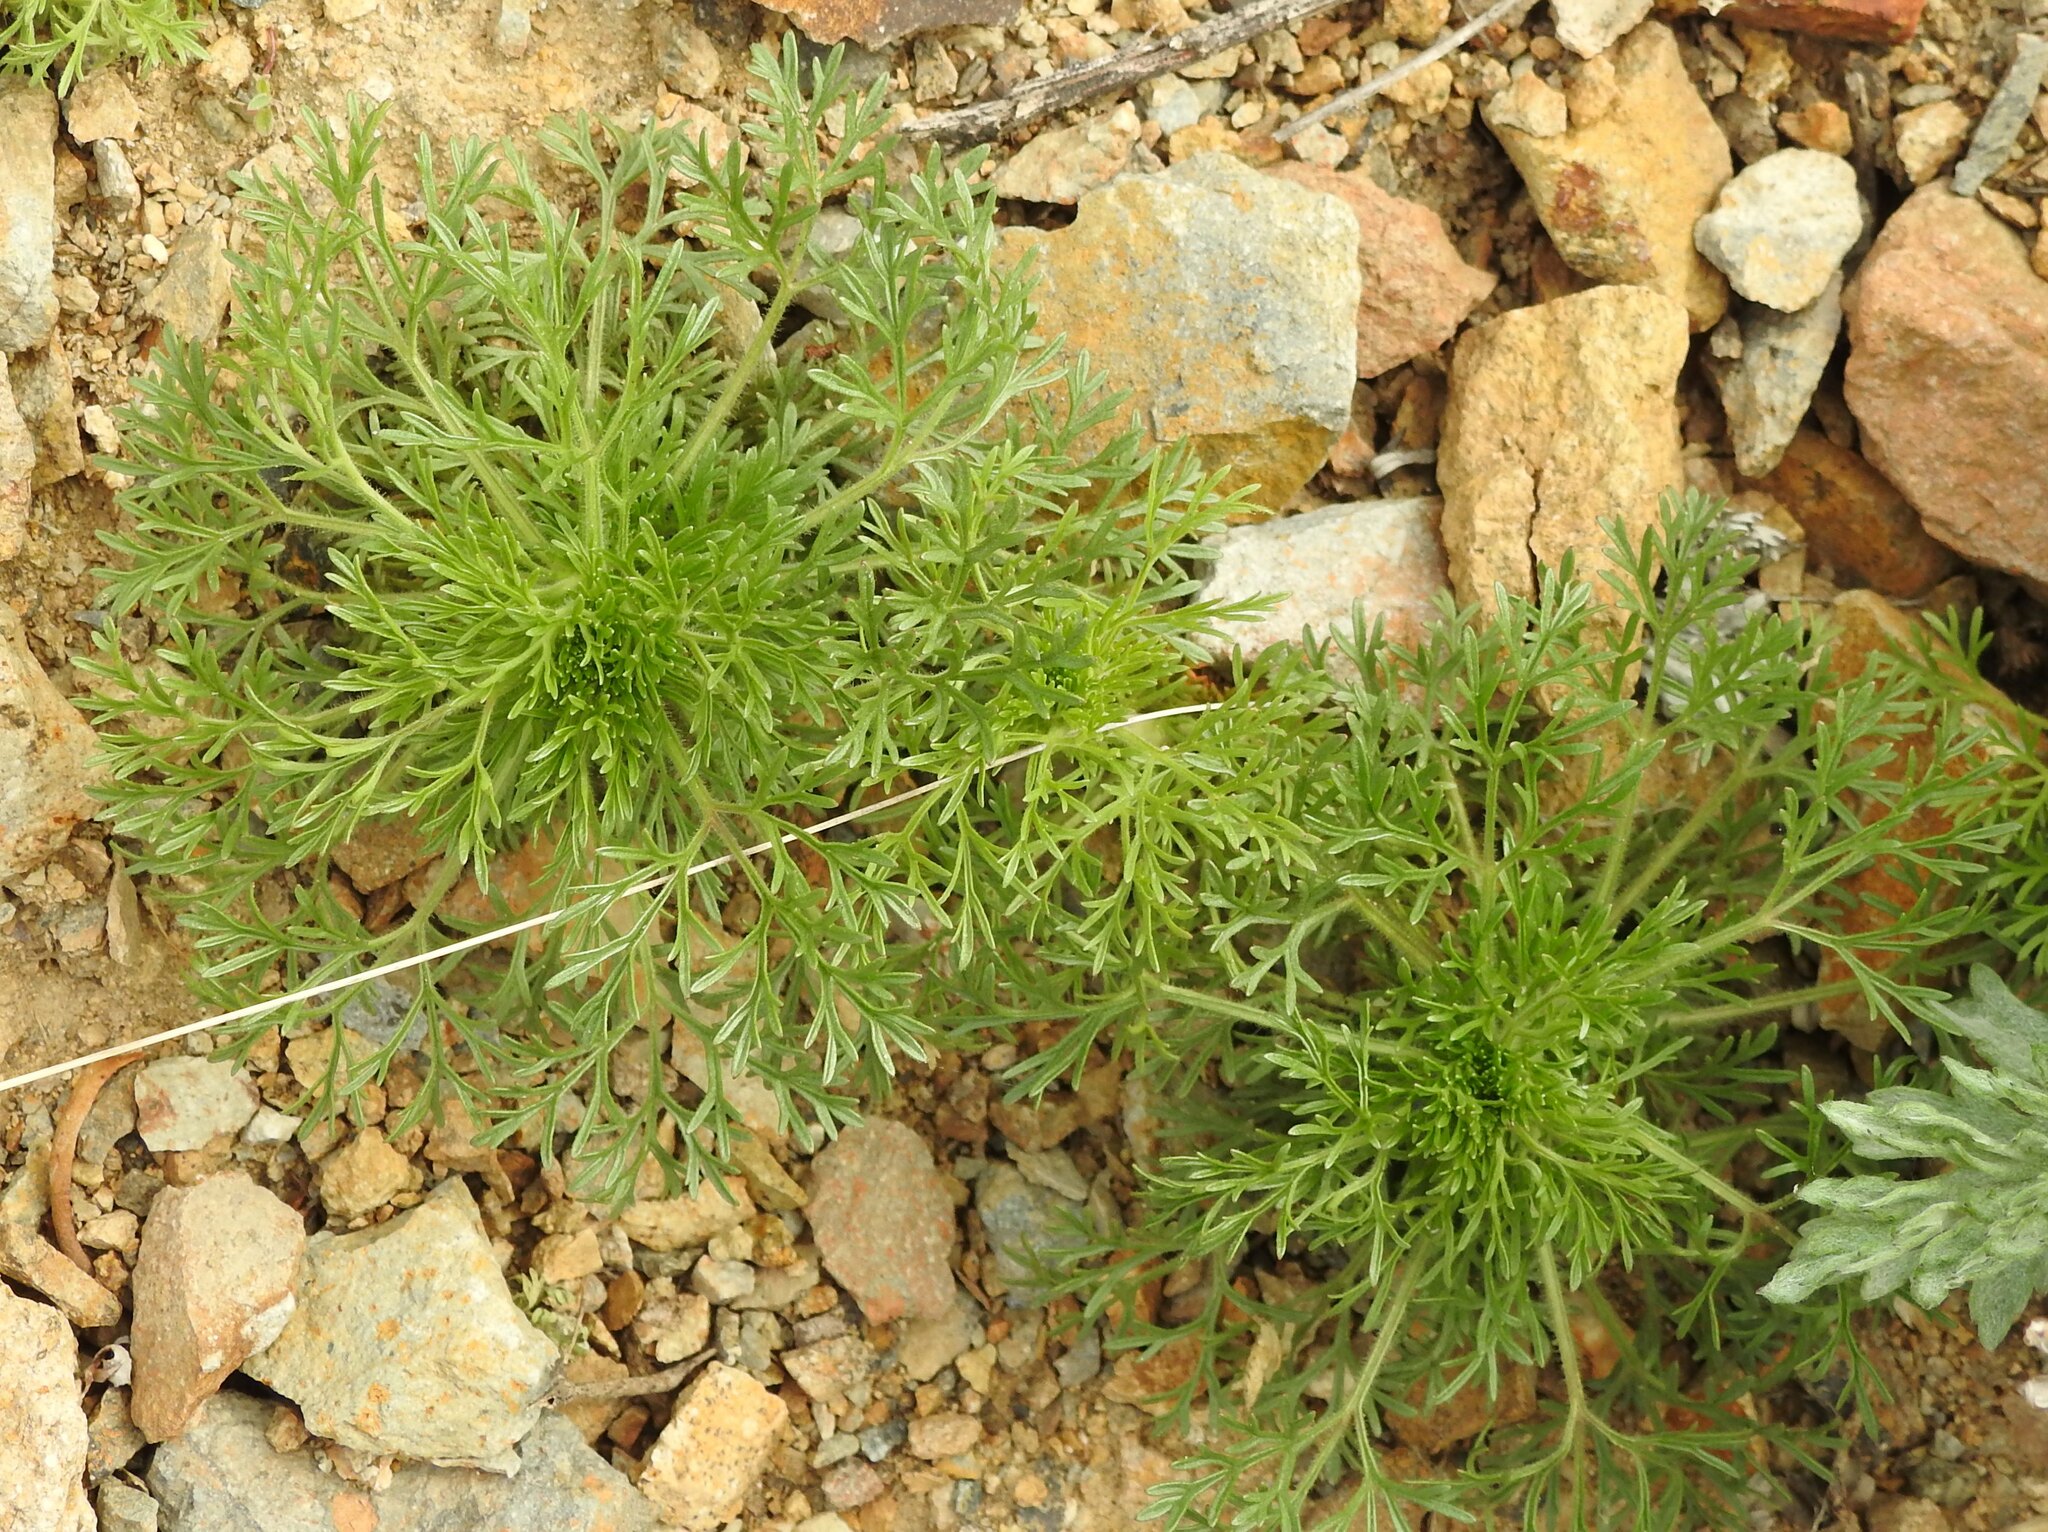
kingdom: Plantae
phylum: Tracheophyta
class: Magnoliopsida
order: Rosales
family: Rosaceae
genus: Chamaerhodos
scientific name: Chamaerhodos erecta
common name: American chamaerhodos
